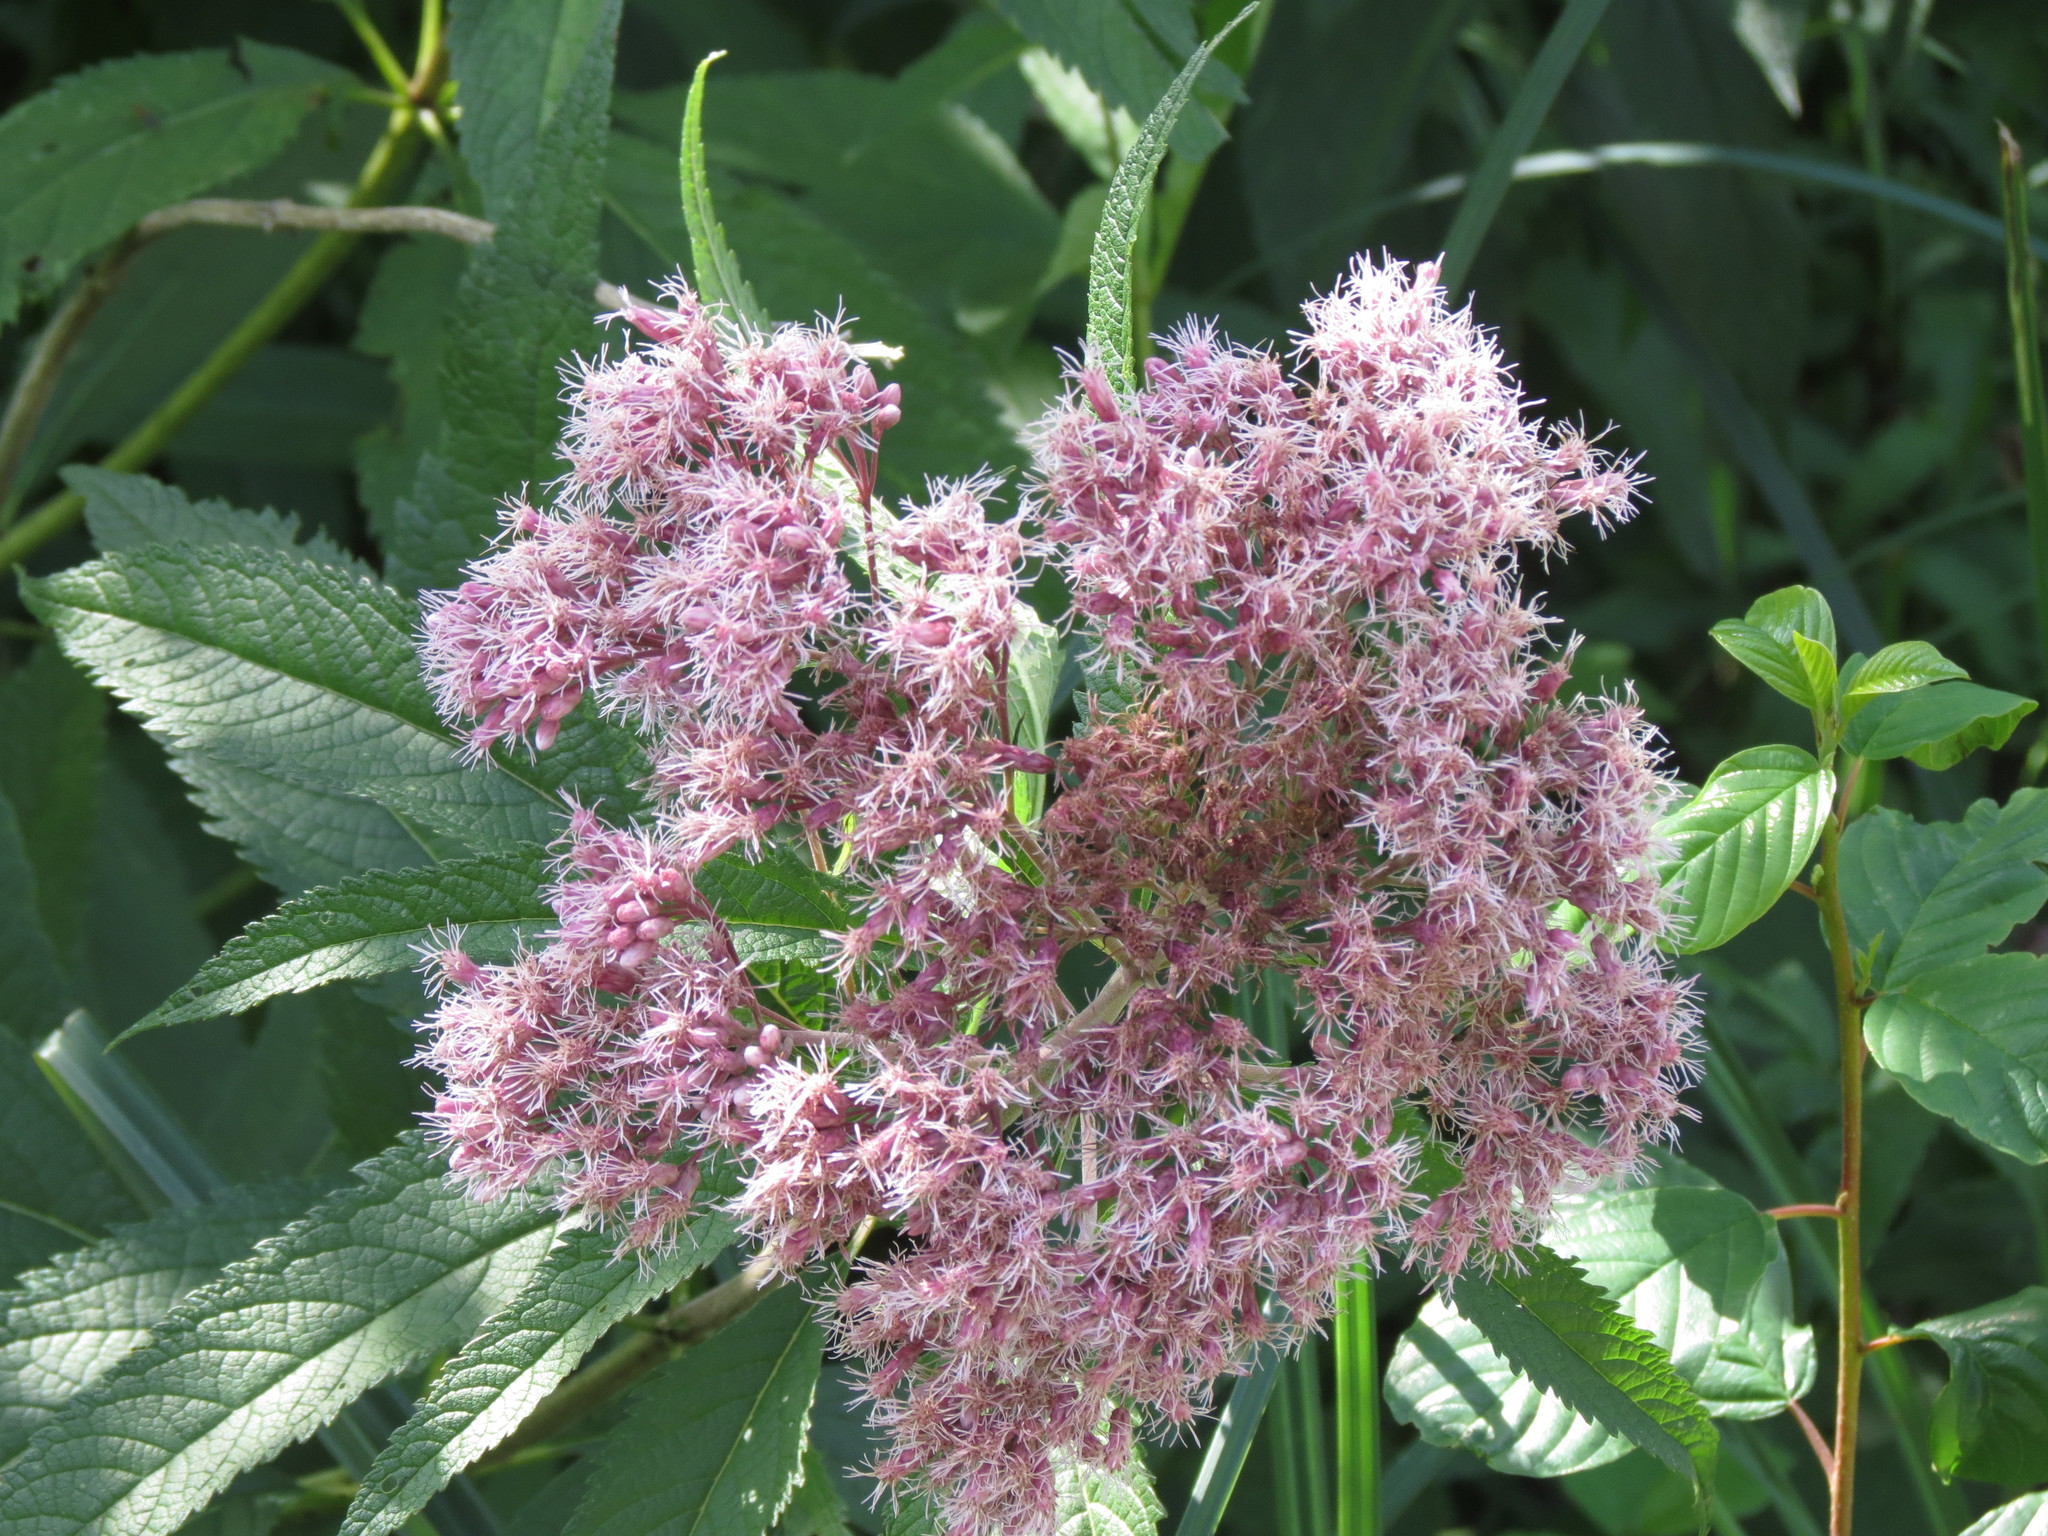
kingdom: Plantae
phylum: Tracheophyta
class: Magnoliopsida
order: Asterales
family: Asteraceae
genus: Eutrochium
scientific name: Eutrochium maculatum
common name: Spotted joe pye weed
